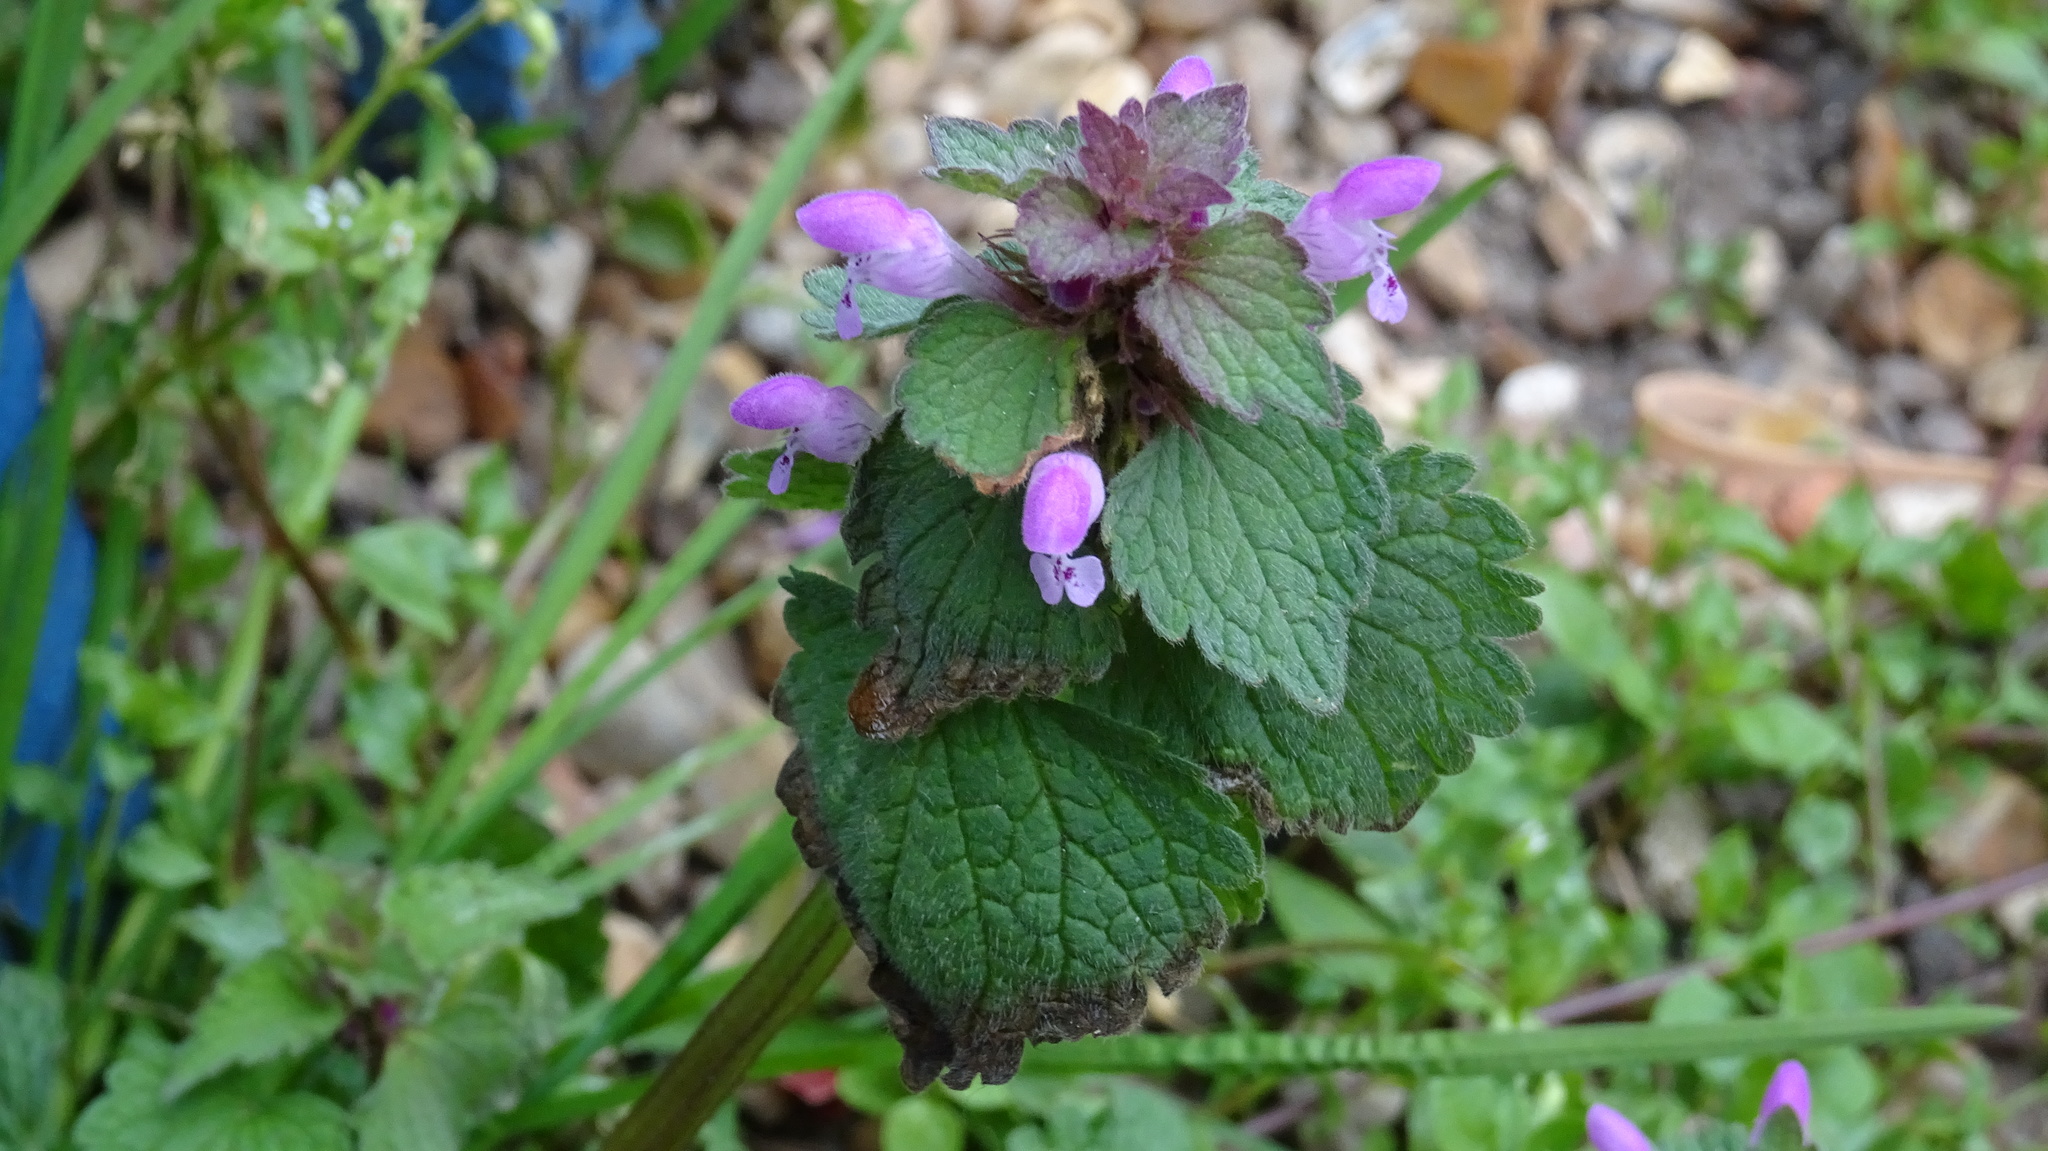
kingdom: Plantae
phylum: Tracheophyta
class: Magnoliopsida
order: Lamiales
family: Lamiaceae
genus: Lamium
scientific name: Lamium purpureum
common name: Red dead-nettle
